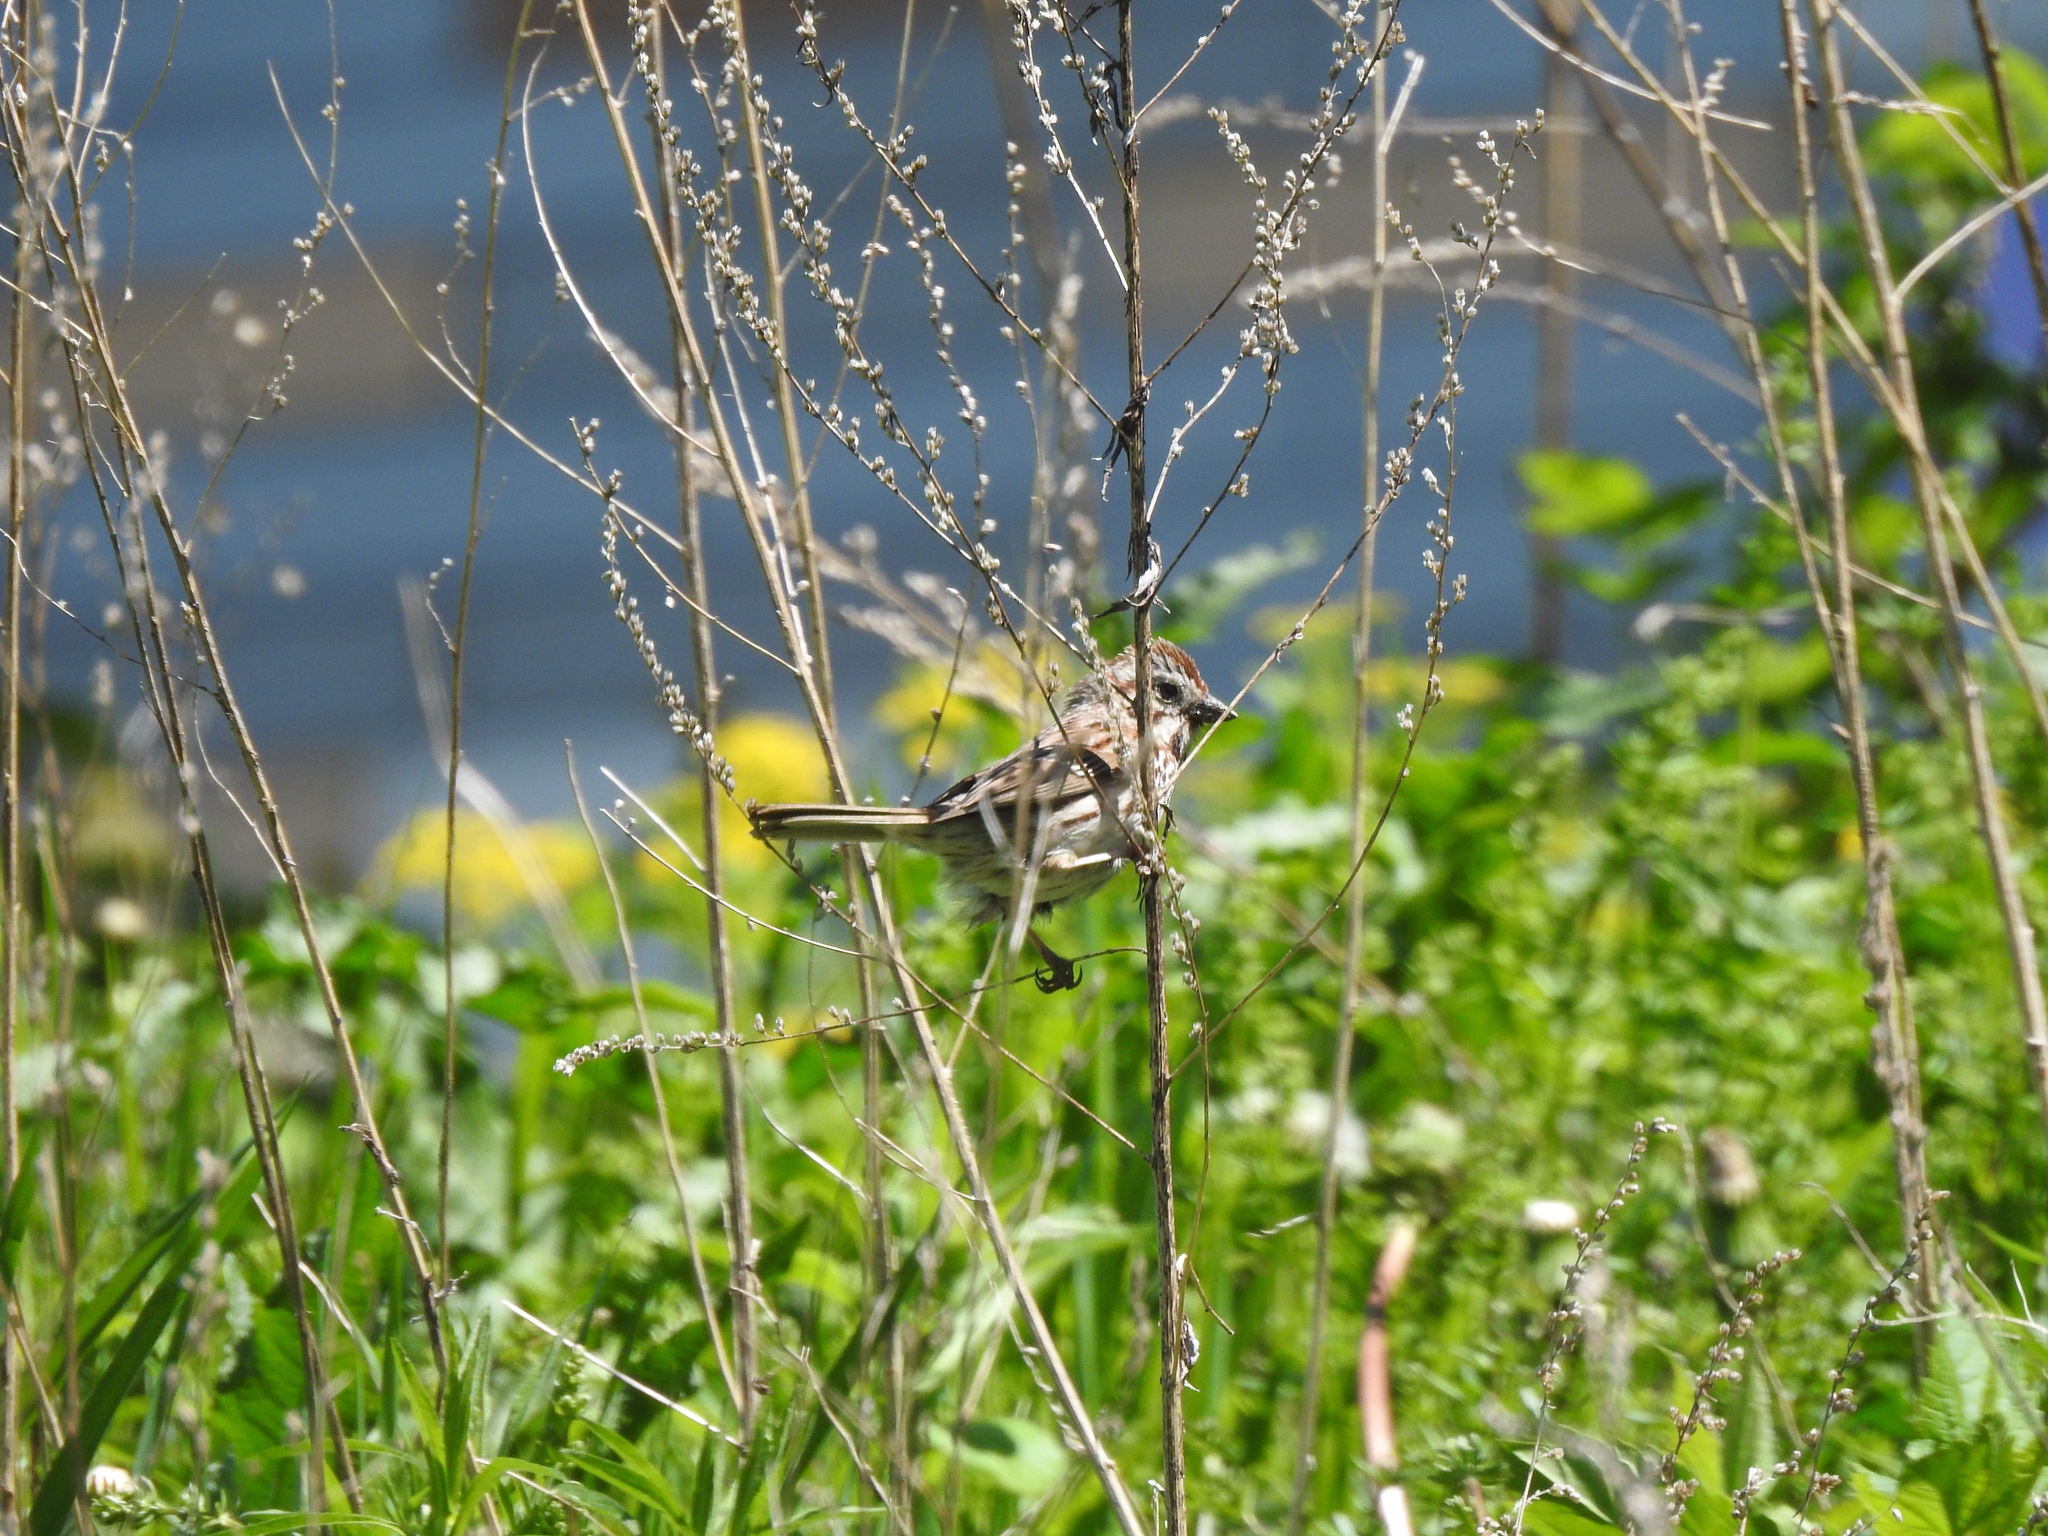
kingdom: Animalia
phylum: Chordata
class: Aves
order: Passeriformes
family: Passerellidae
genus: Melospiza
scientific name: Melospiza melodia
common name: Song sparrow
